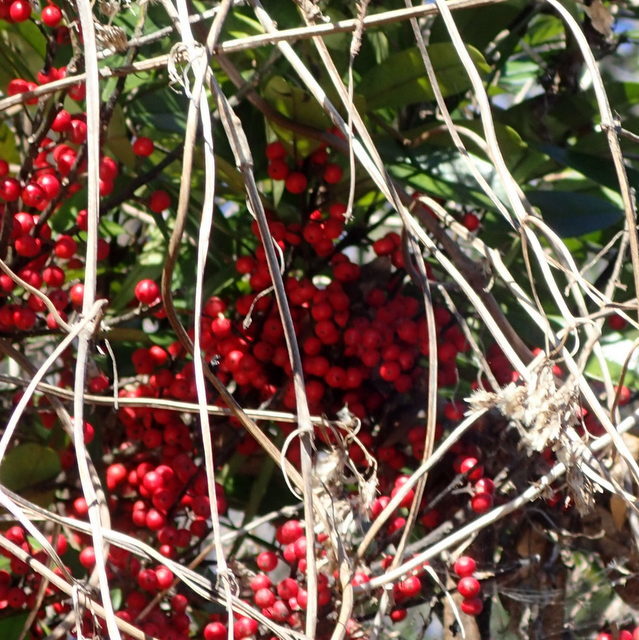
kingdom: Plantae
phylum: Tracheophyta
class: Magnoliopsida
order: Aquifoliales
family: Aquifoliaceae
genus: Ilex
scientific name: Ilex cassine
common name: Dahoon
